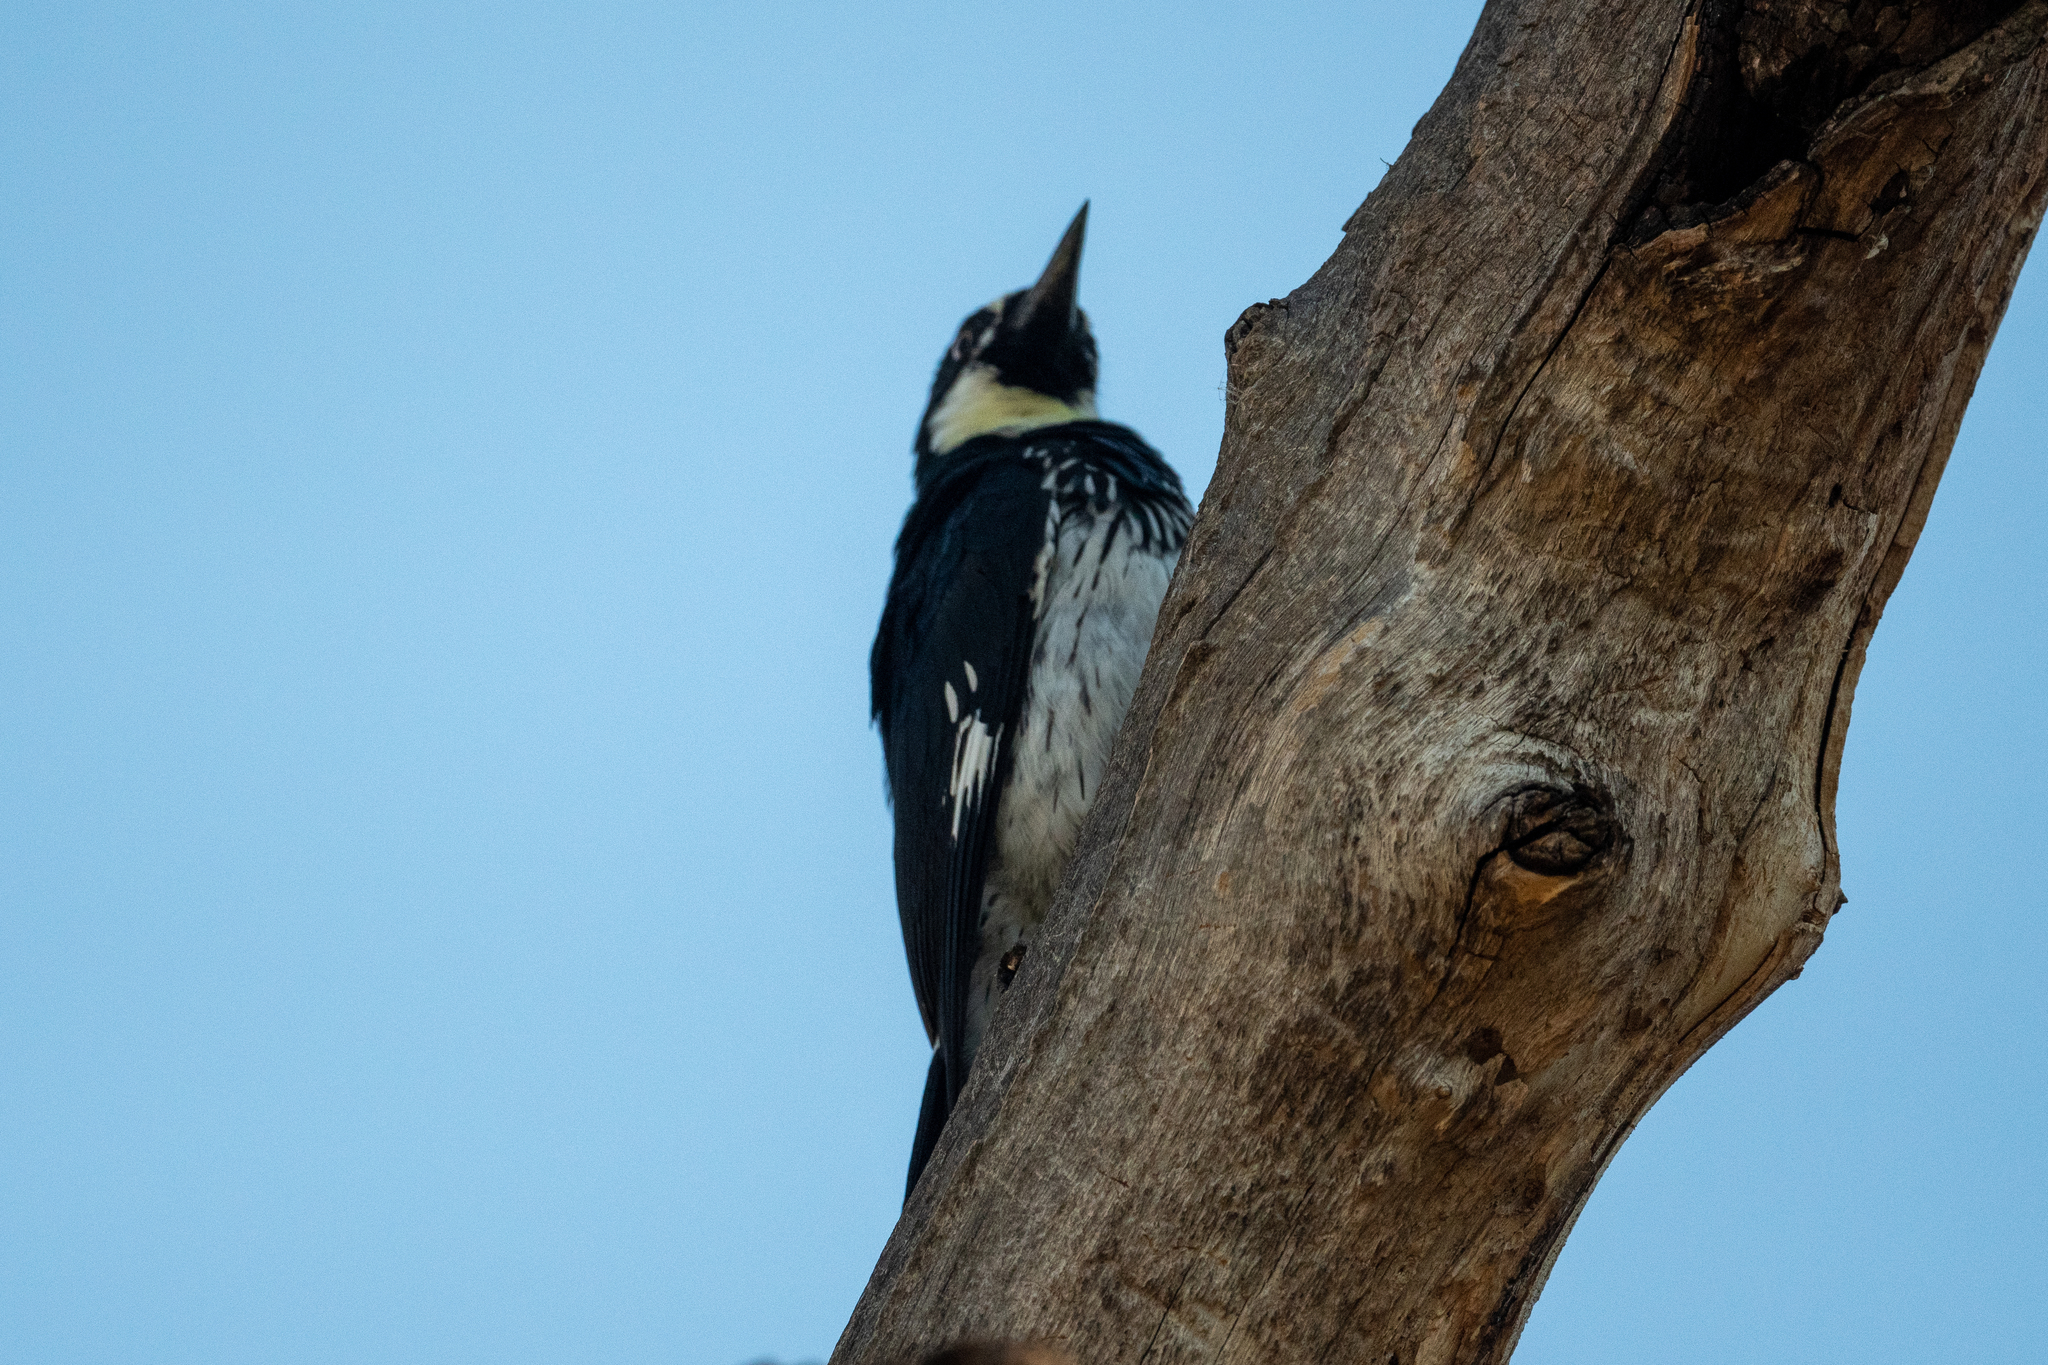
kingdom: Animalia
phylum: Chordata
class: Aves
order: Piciformes
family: Picidae
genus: Melanerpes
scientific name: Melanerpes formicivorus
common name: Acorn woodpecker
